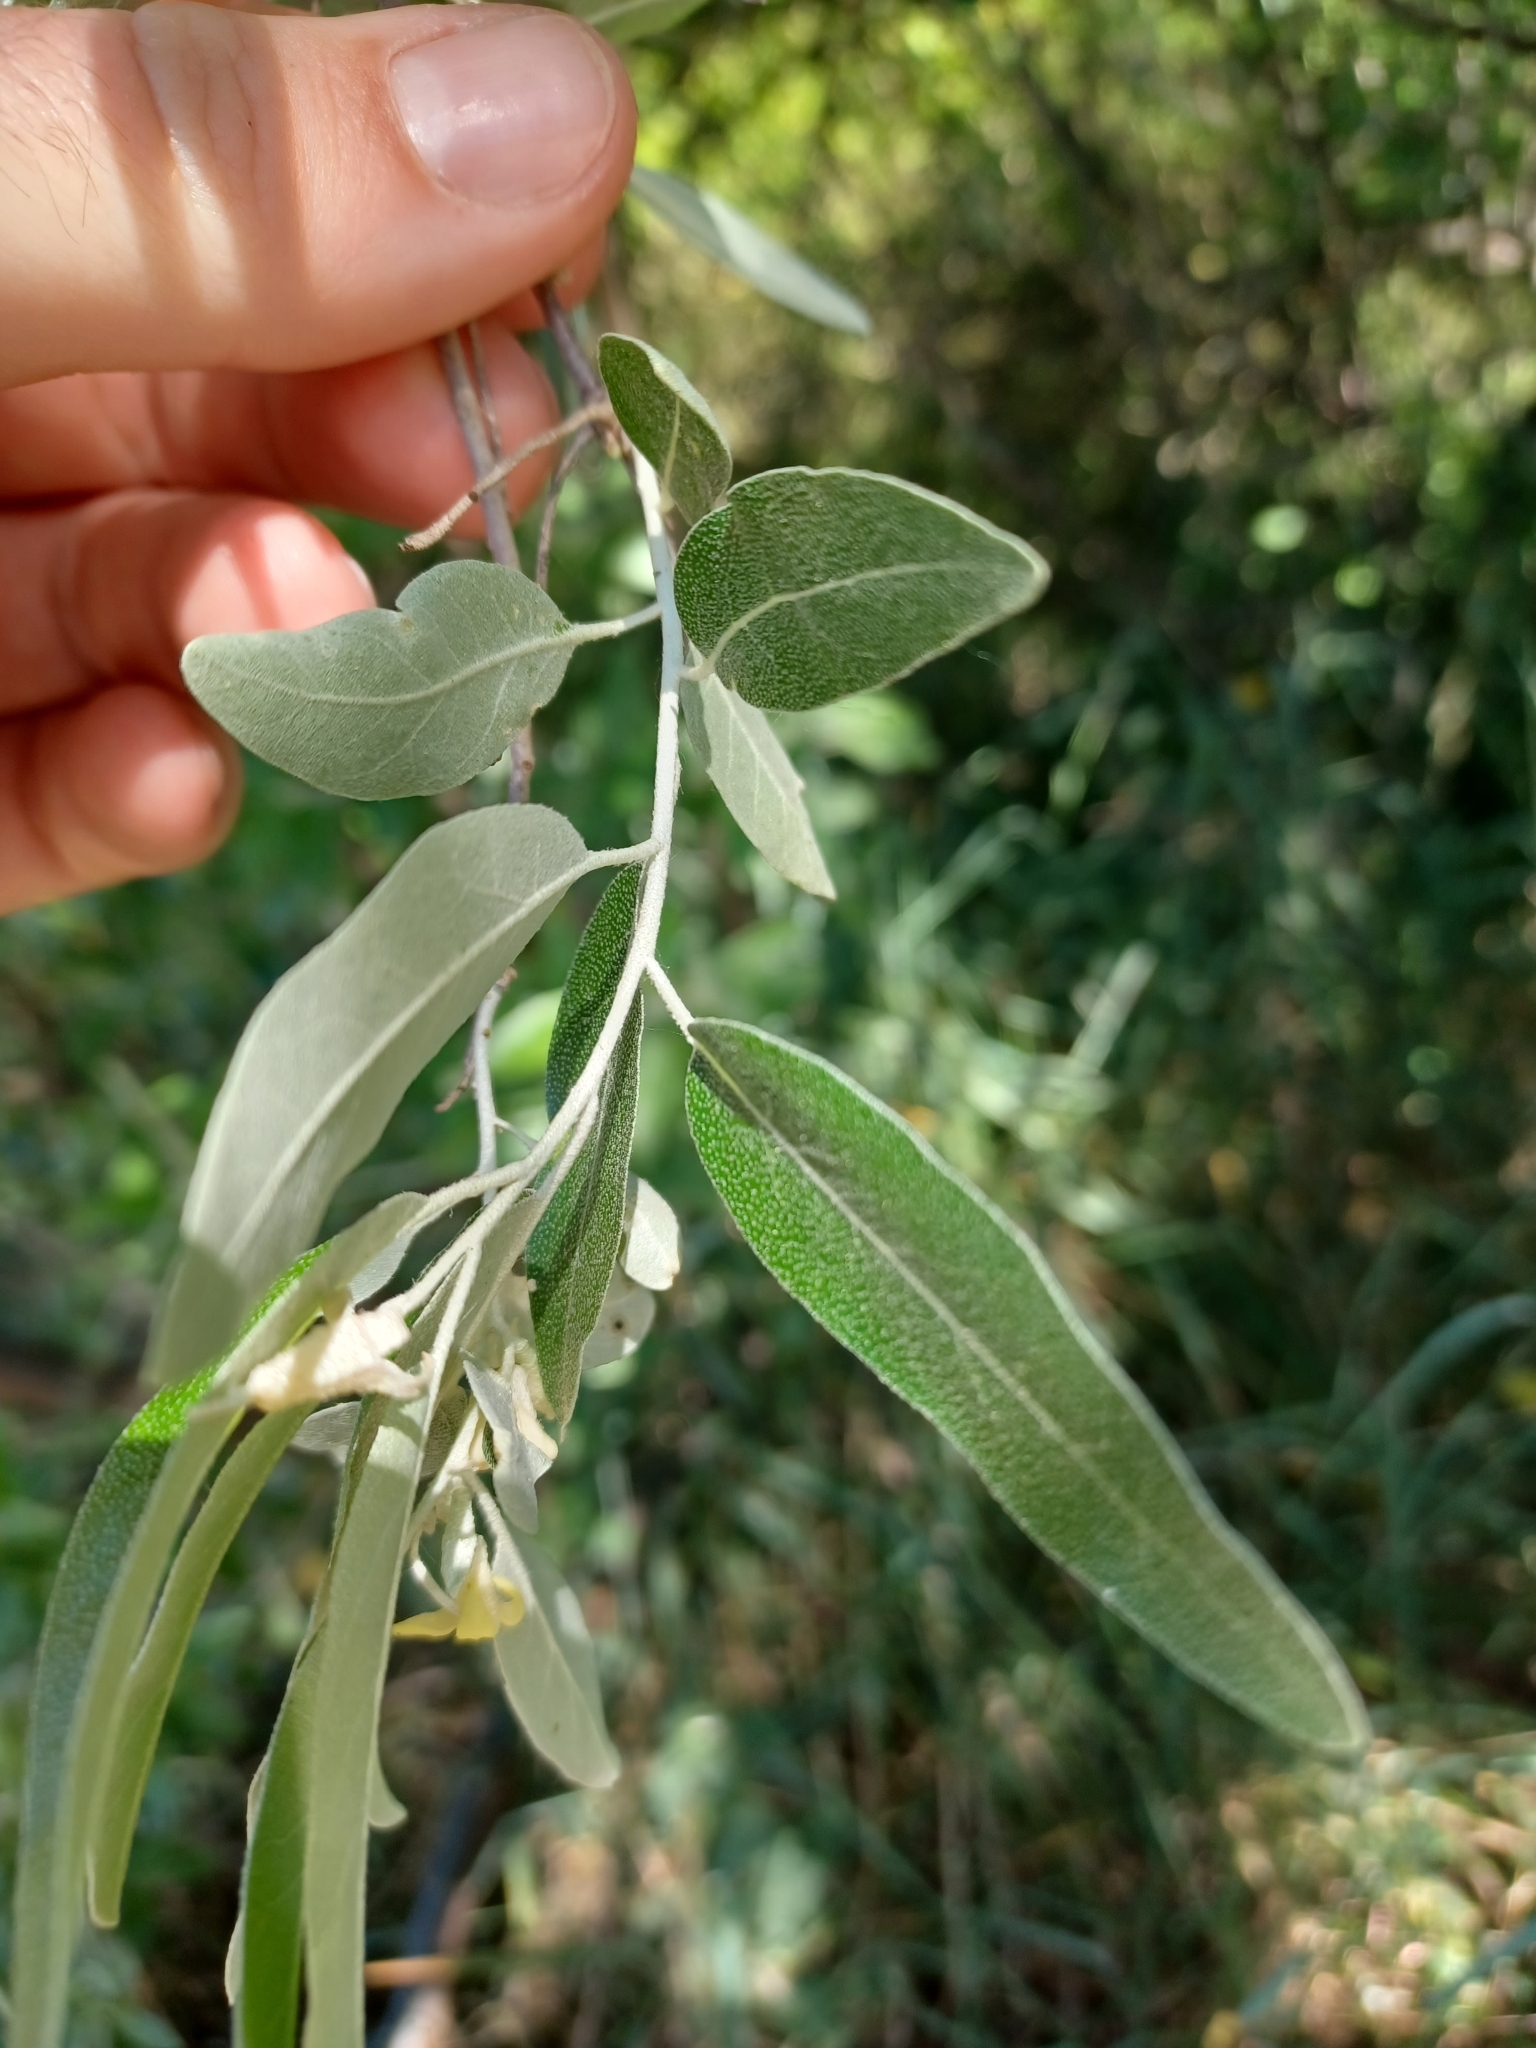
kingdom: Plantae
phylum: Tracheophyta
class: Magnoliopsida
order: Rosales
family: Elaeagnaceae
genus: Elaeagnus
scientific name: Elaeagnus angustifolia
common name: Russian olive
